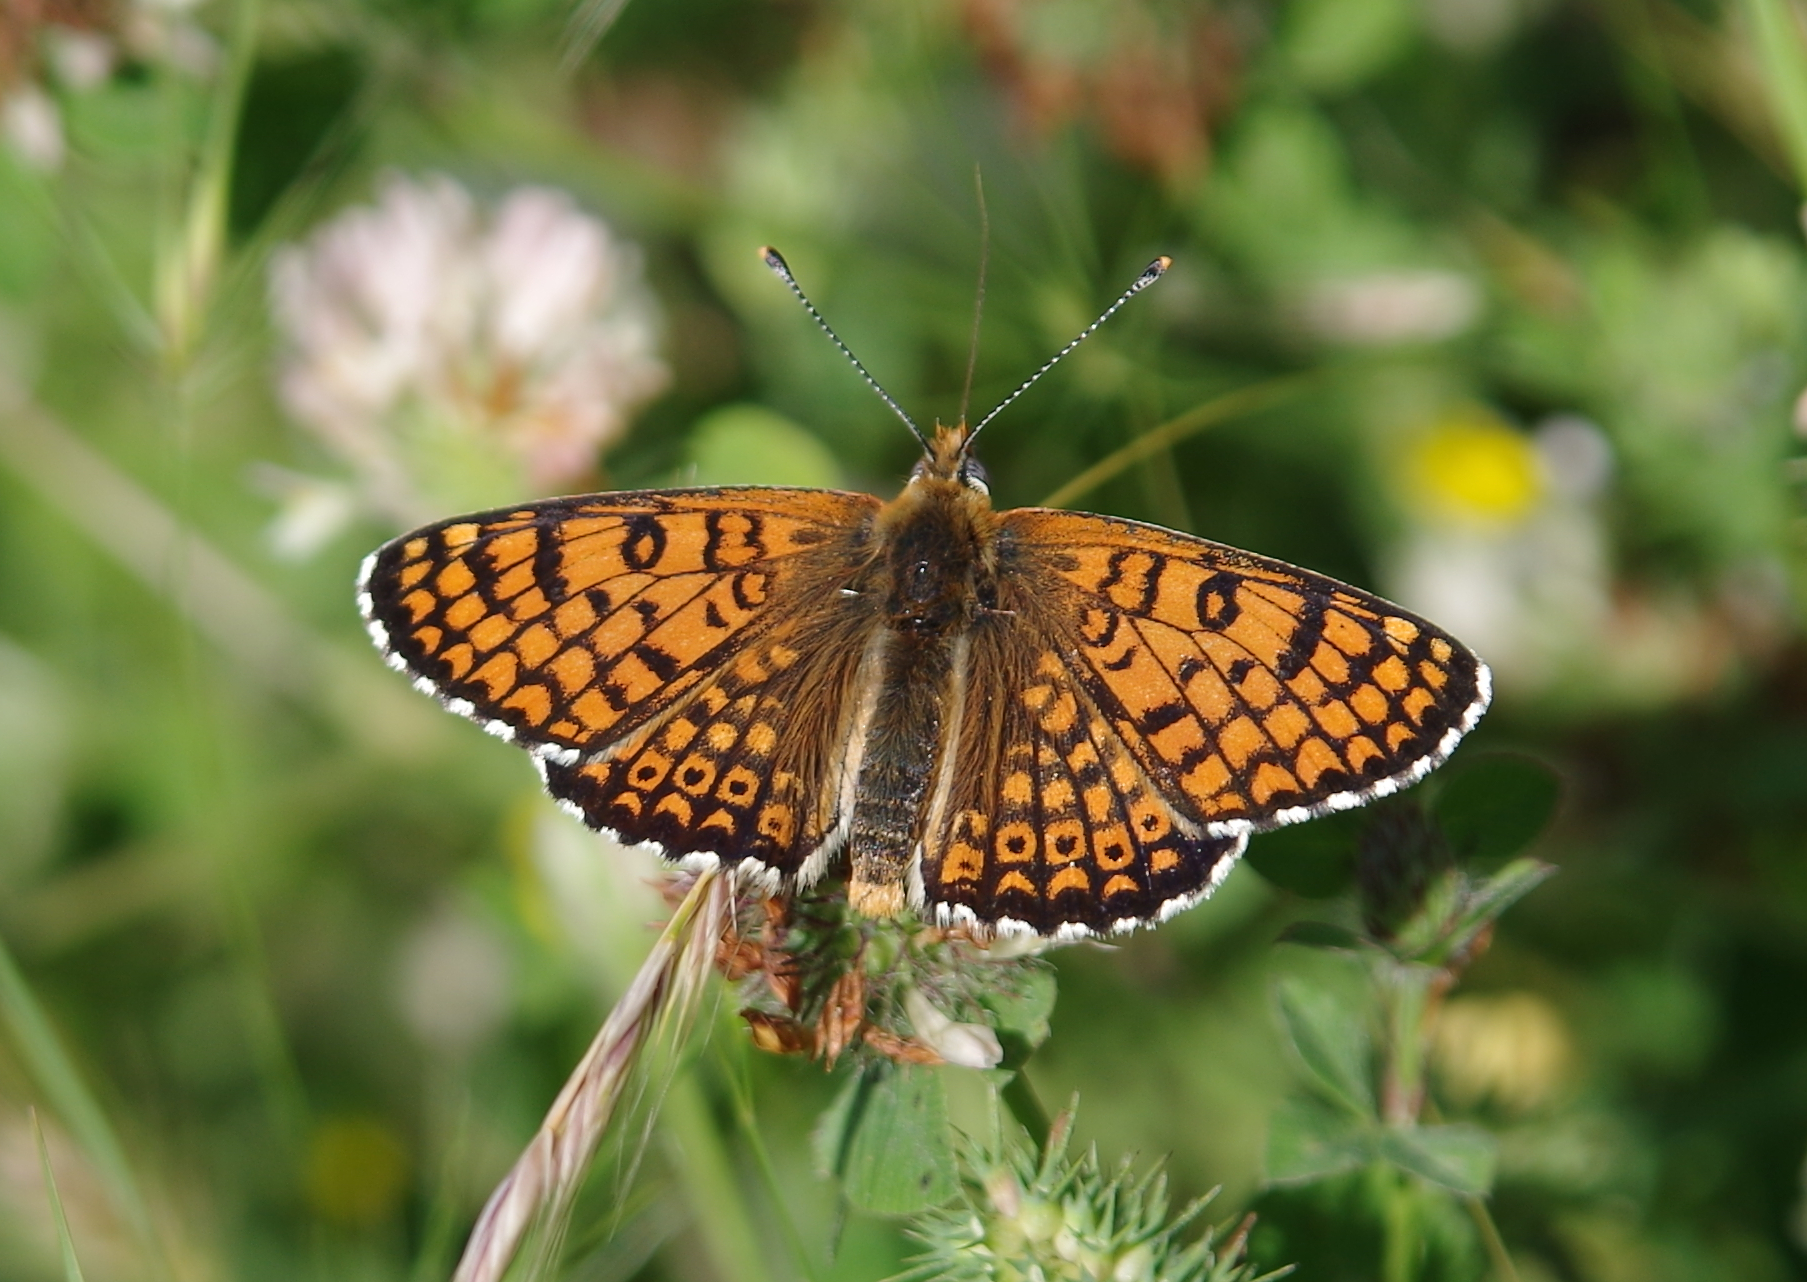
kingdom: Animalia
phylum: Arthropoda
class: Insecta
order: Lepidoptera
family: Nymphalidae
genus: Melitaea
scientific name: Melitaea cinxia
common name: Glanville fritillary
